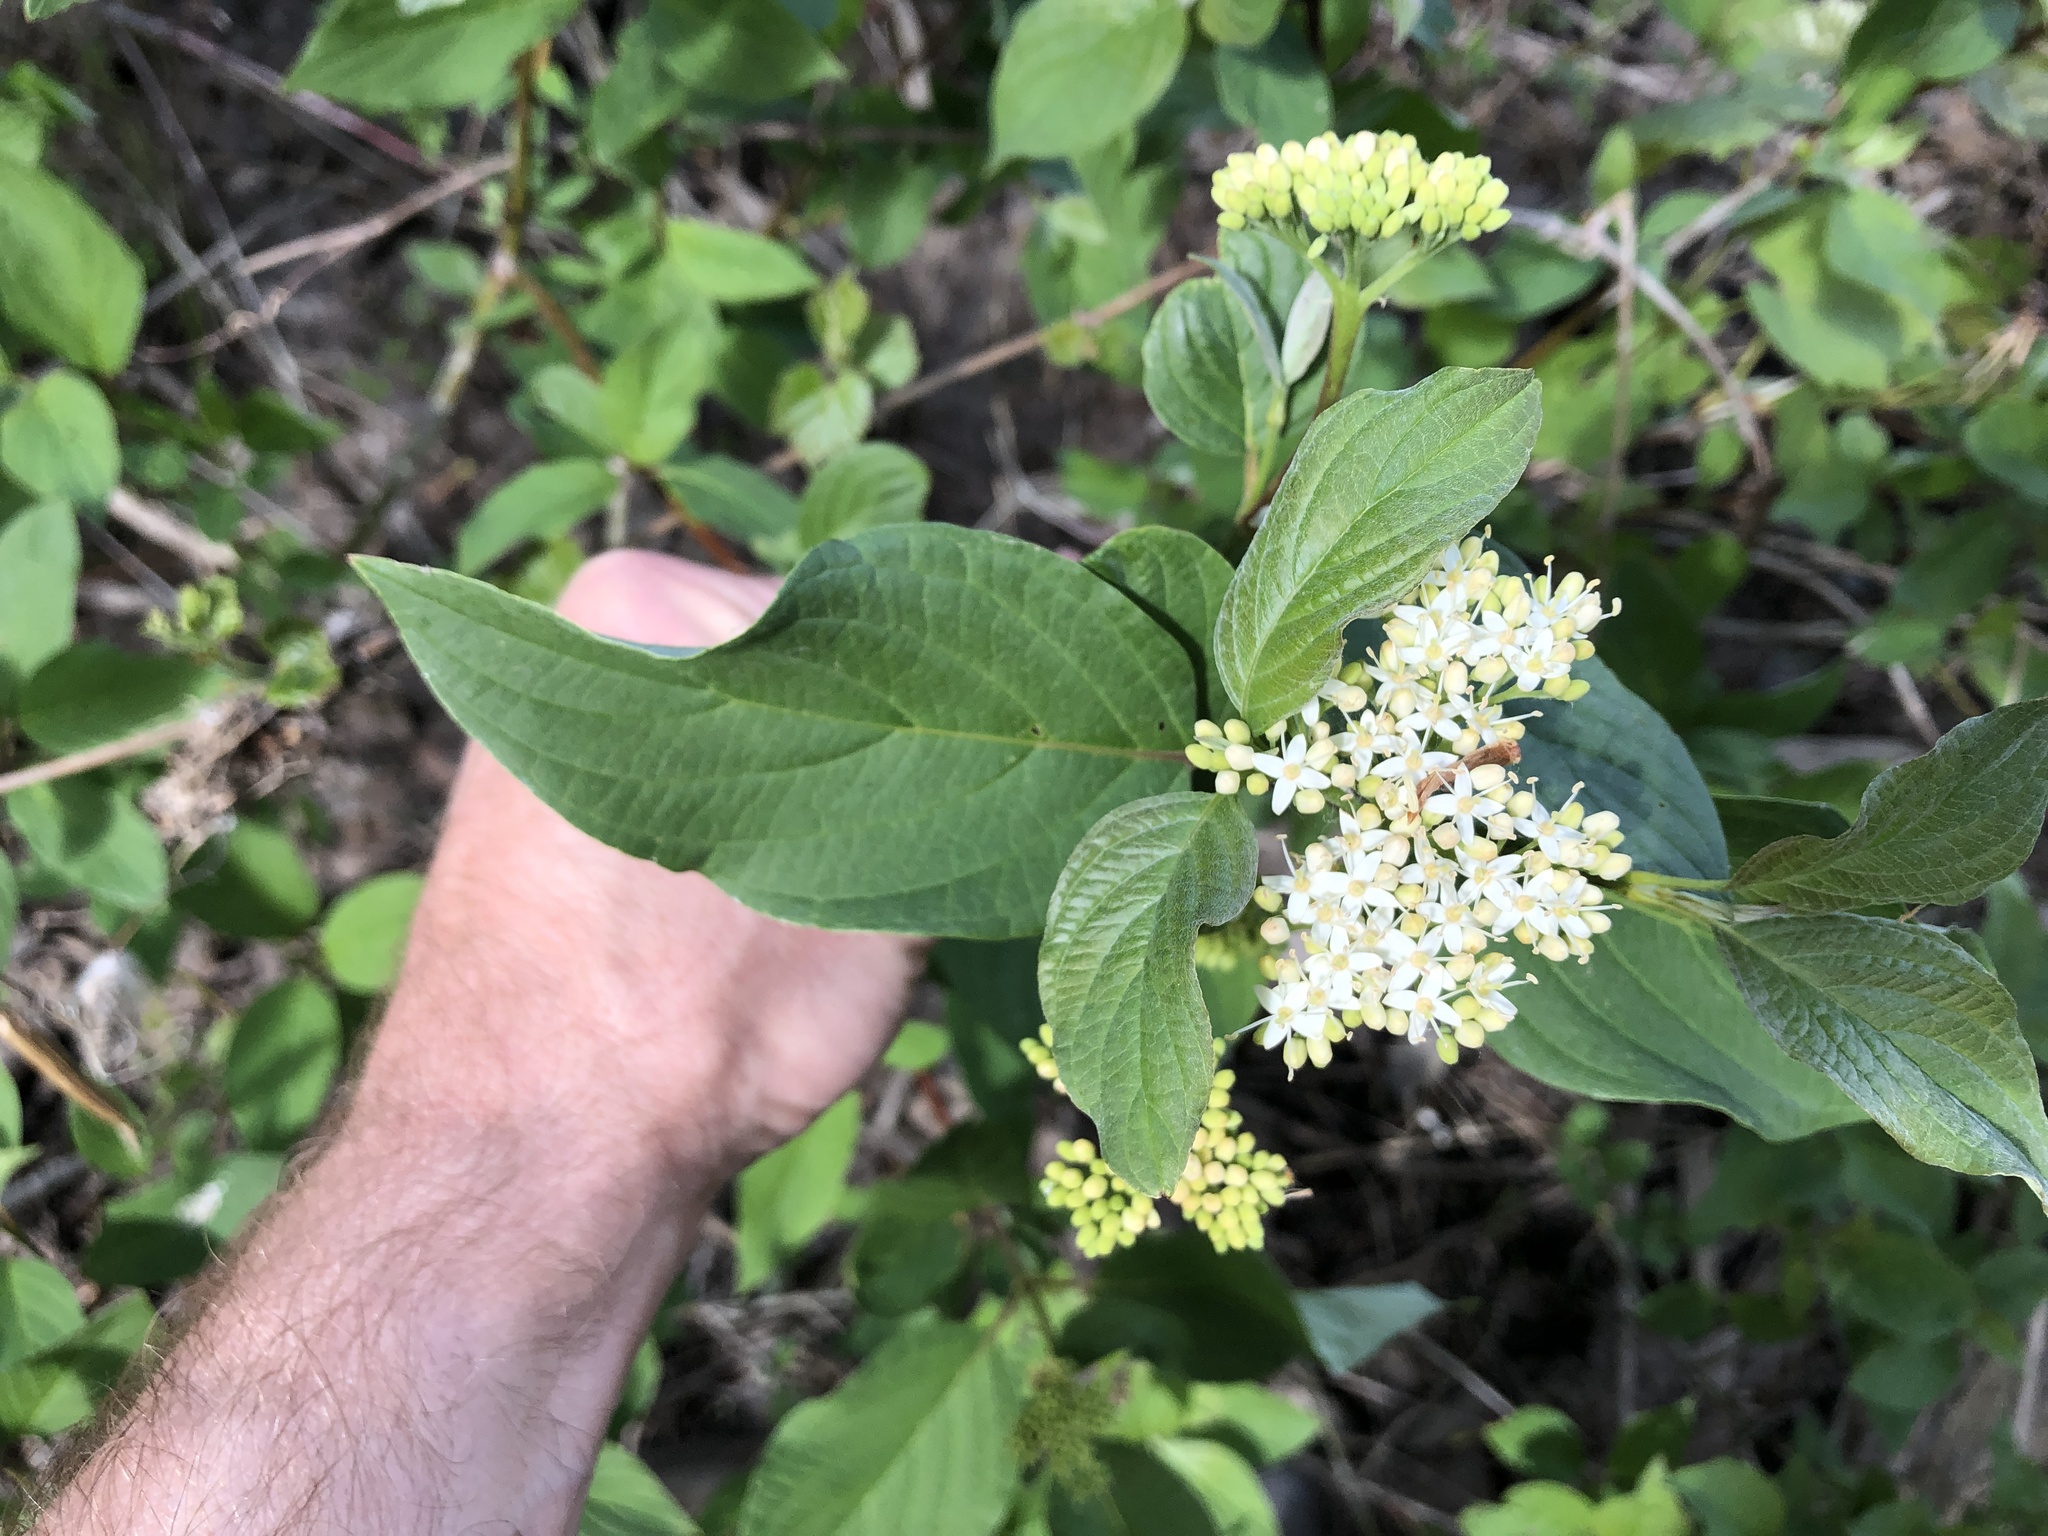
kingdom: Plantae
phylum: Tracheophyta
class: Magnoliopsida
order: Cornales
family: Cornaceae
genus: Cornus
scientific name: Cornus sericea
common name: Red-osier dogwood
